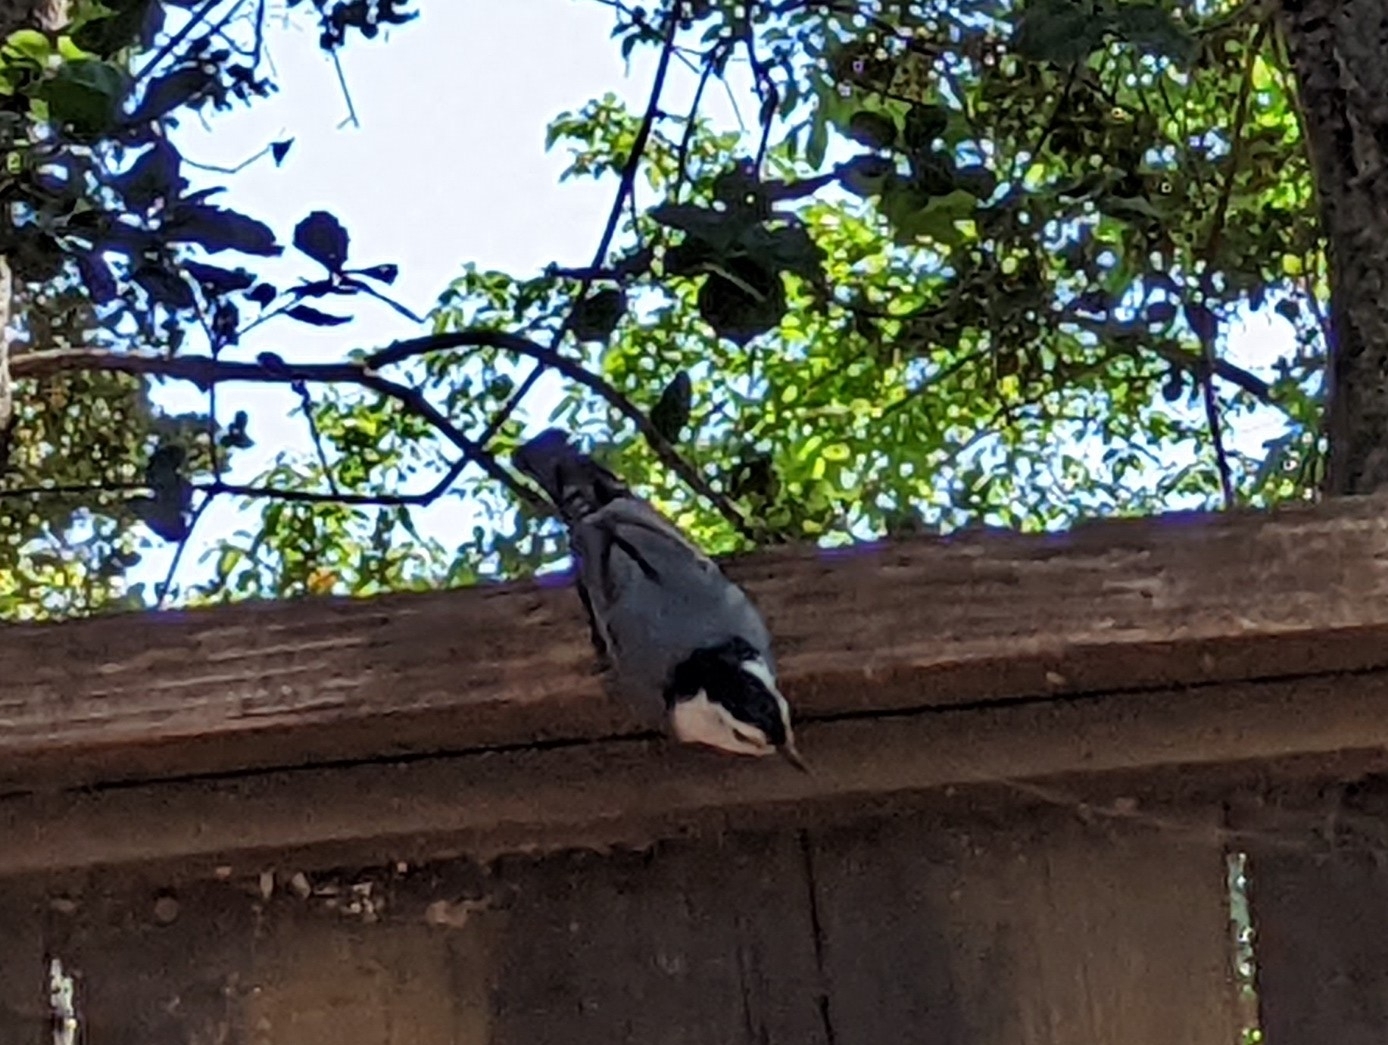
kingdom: Animalia
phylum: Chordata
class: Aves
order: Passeriformes
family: Sittidae
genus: Sitta
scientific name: Sitta carolinensis
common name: White-breasted nuthatch
